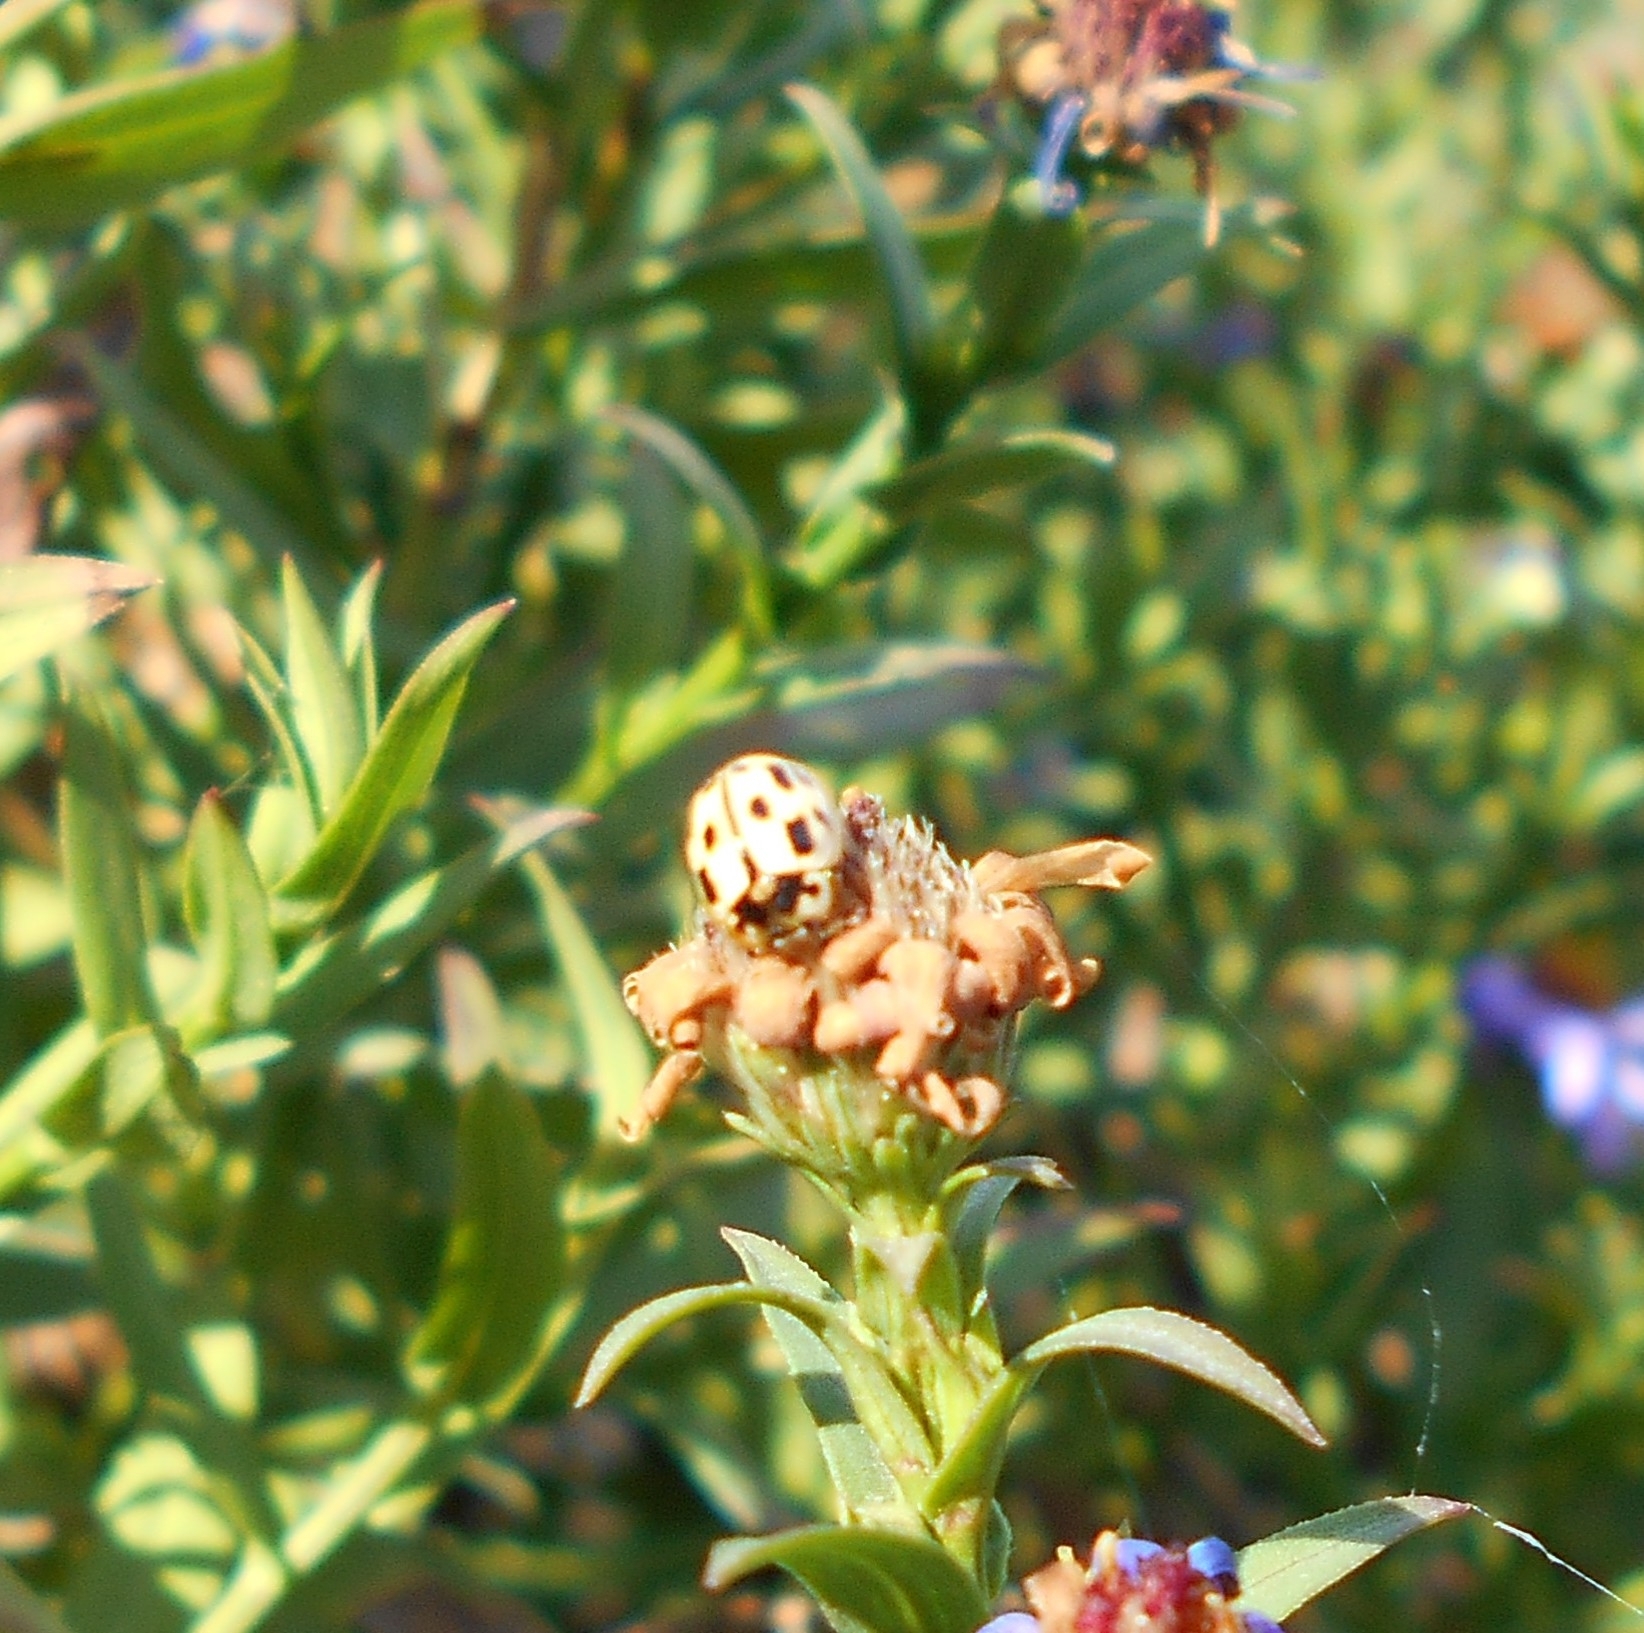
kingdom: Animalia
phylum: Arthropoda
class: Insecta
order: Coleoptera
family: Coccinellidae
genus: Propylaea
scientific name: Propylaea quatuordecimpunctata
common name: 14-spotted ladybird beetle
